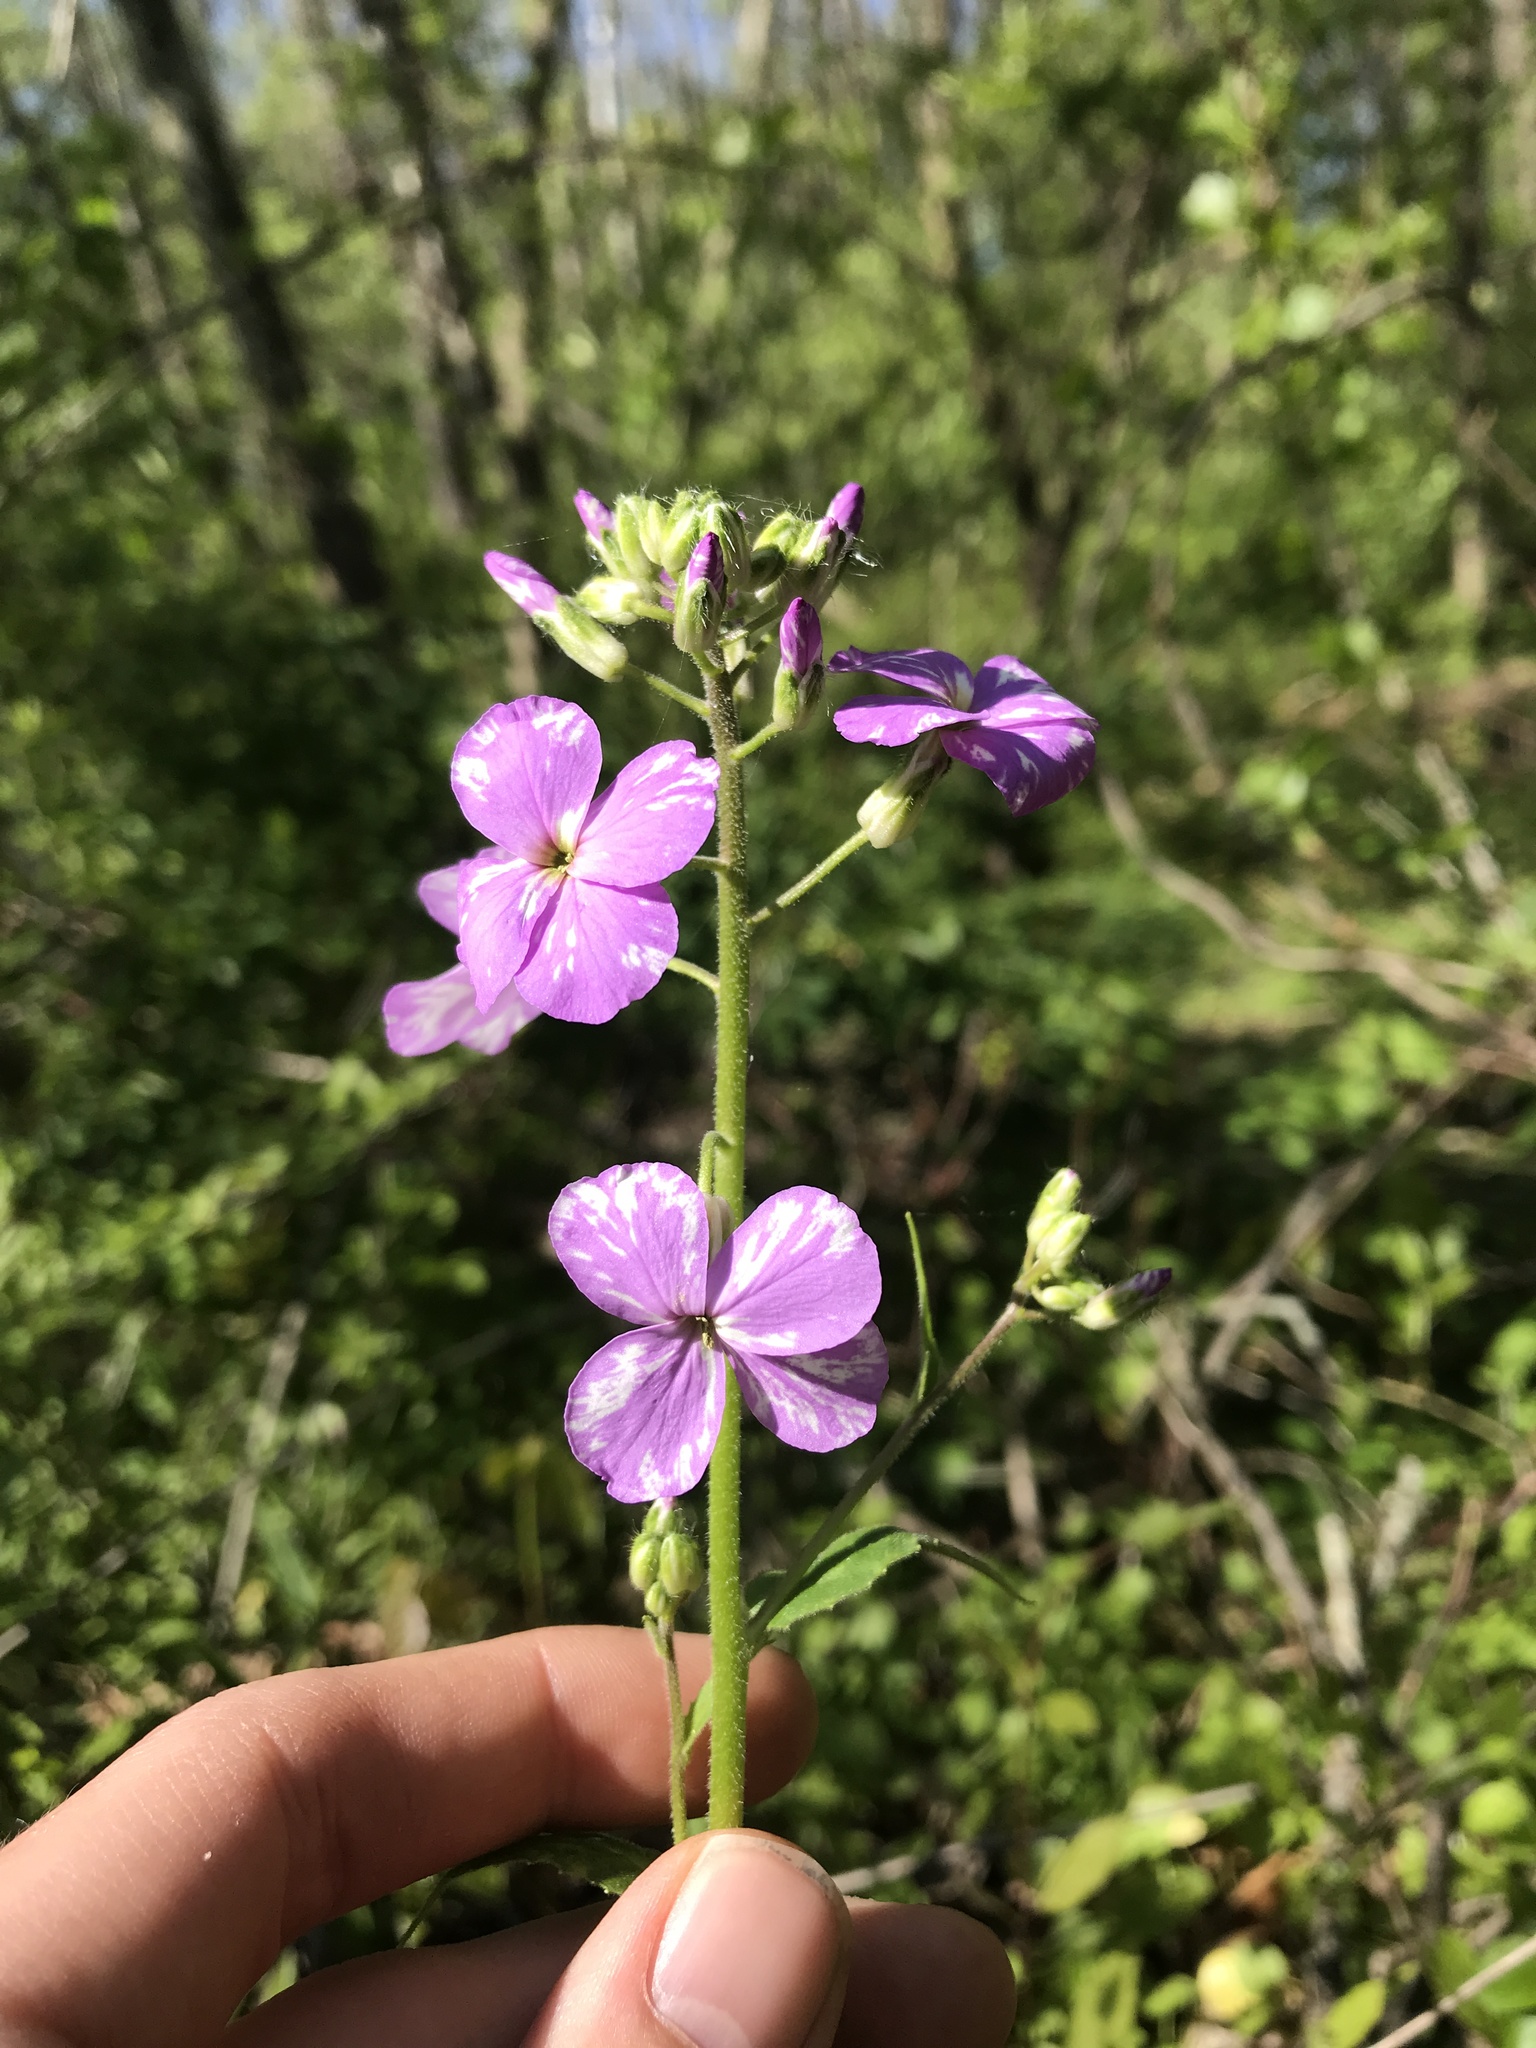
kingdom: Plantae
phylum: Tracheophyta
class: Magnoliopsida
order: Brassicales
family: Brassicaceae
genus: Hesperis
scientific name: Hesperis matronalis
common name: Dame's-violet
